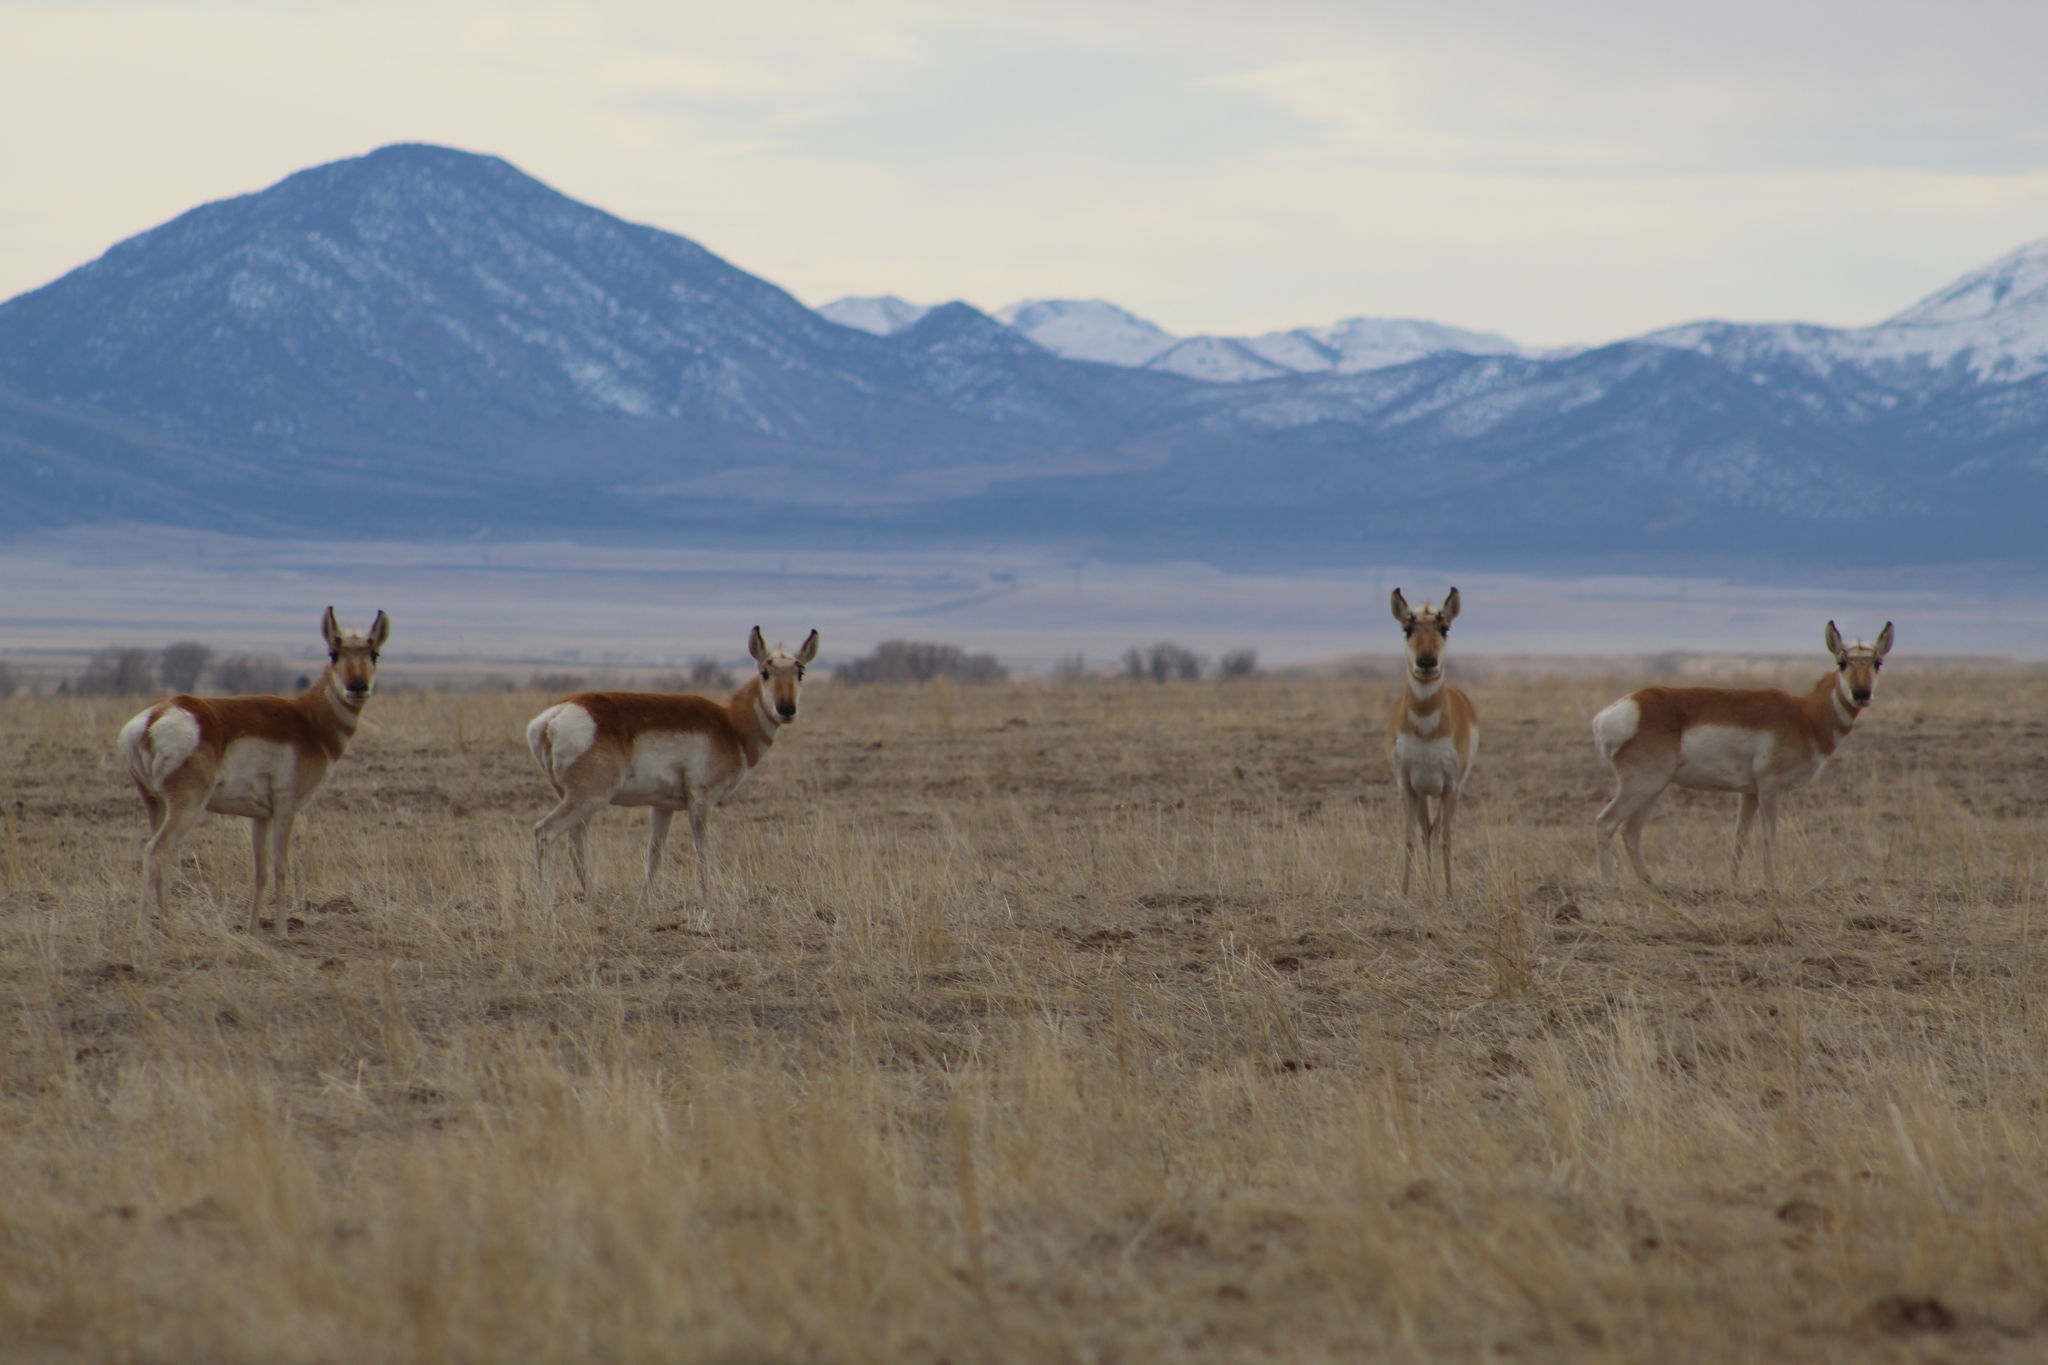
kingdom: Animalia
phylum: Chordata
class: Mammalia
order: Artiodactyla
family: Antilocapridae
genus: Antilocapra
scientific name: Antilocapra americana
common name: Pronghorn
